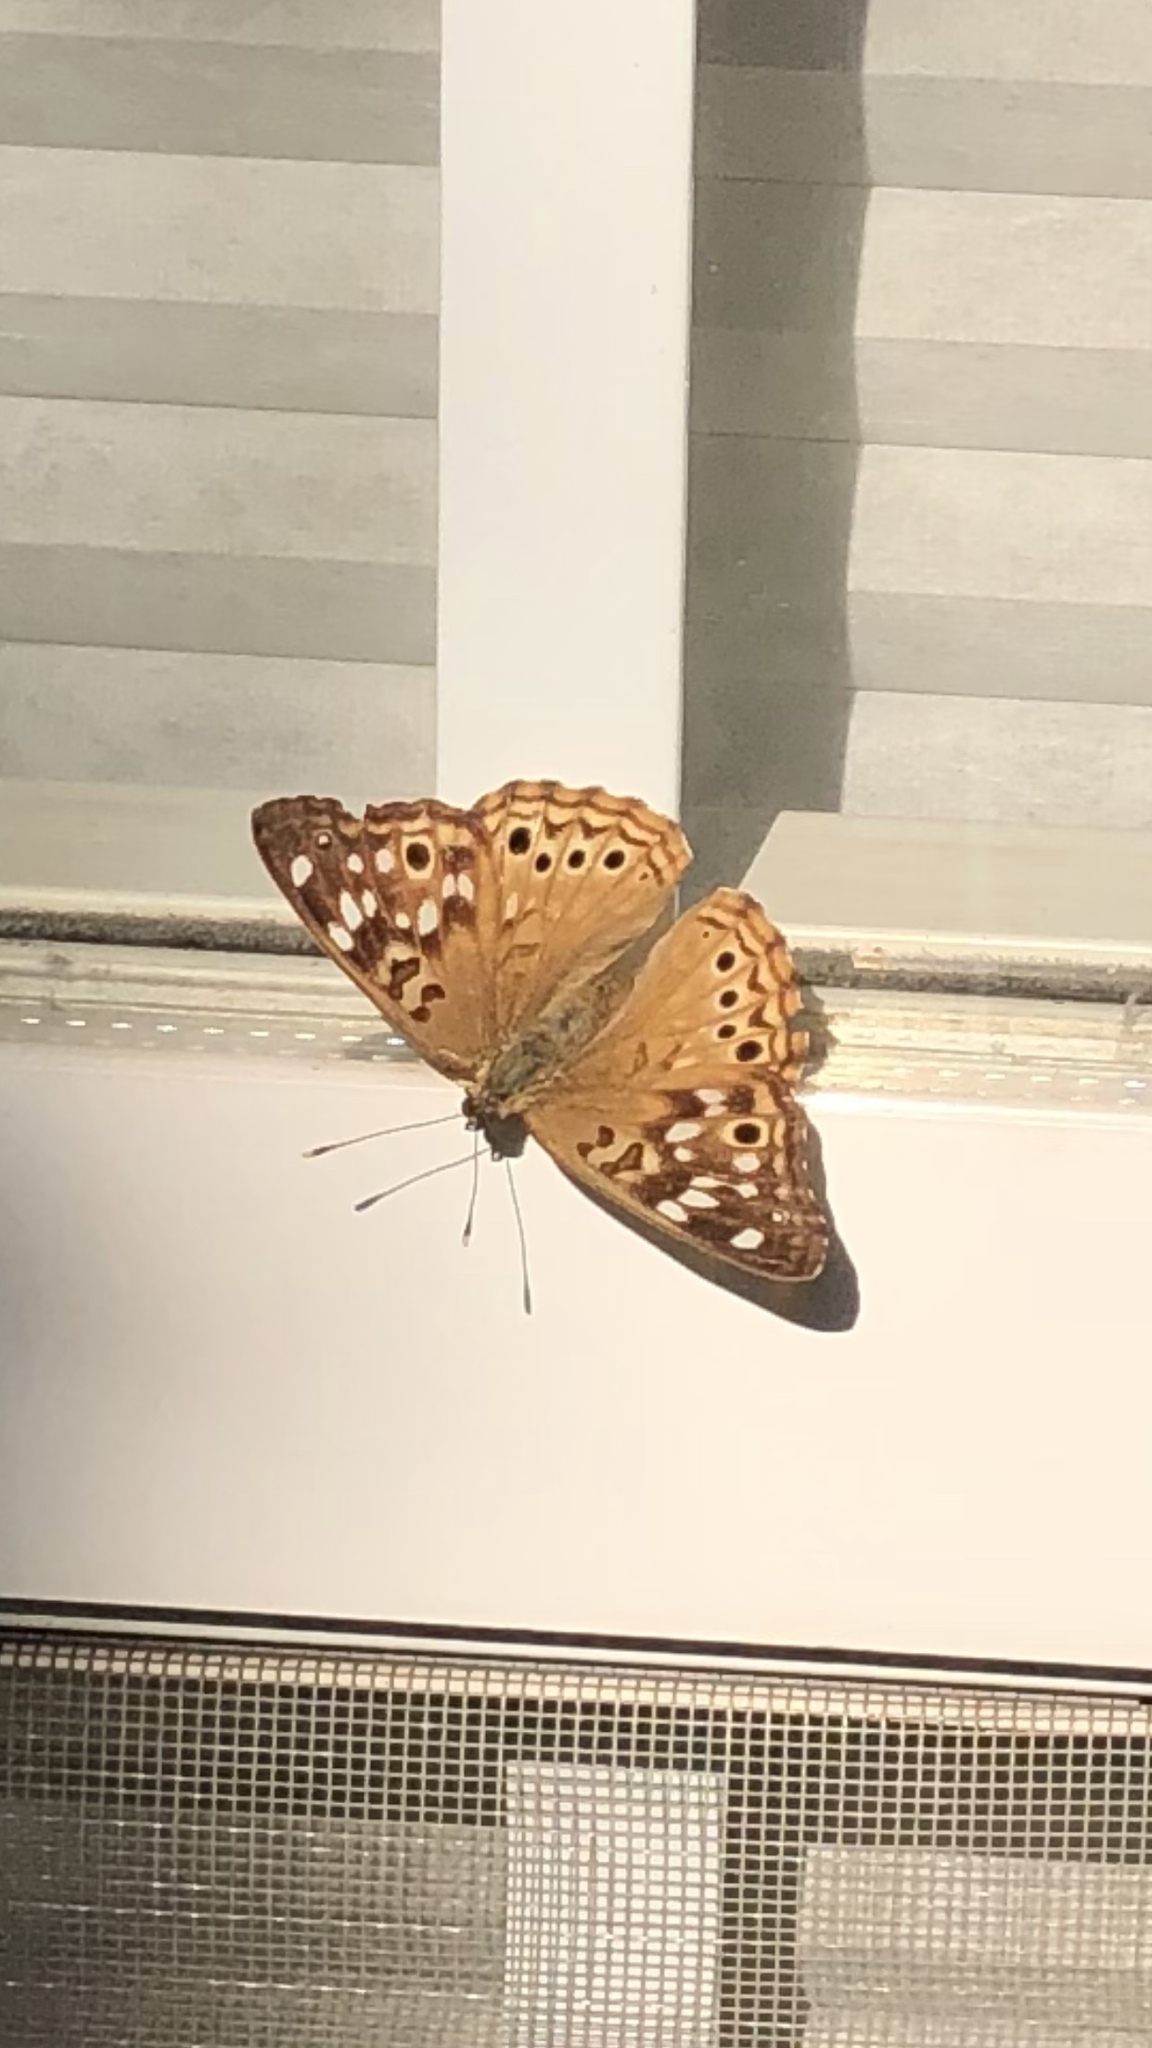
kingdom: Animalia
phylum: Arthropoda
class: Insecta
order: Lepidoptera
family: Nymphalidae
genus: Asterocampa
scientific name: Asterocampa celtis
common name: Hackberry emperor
